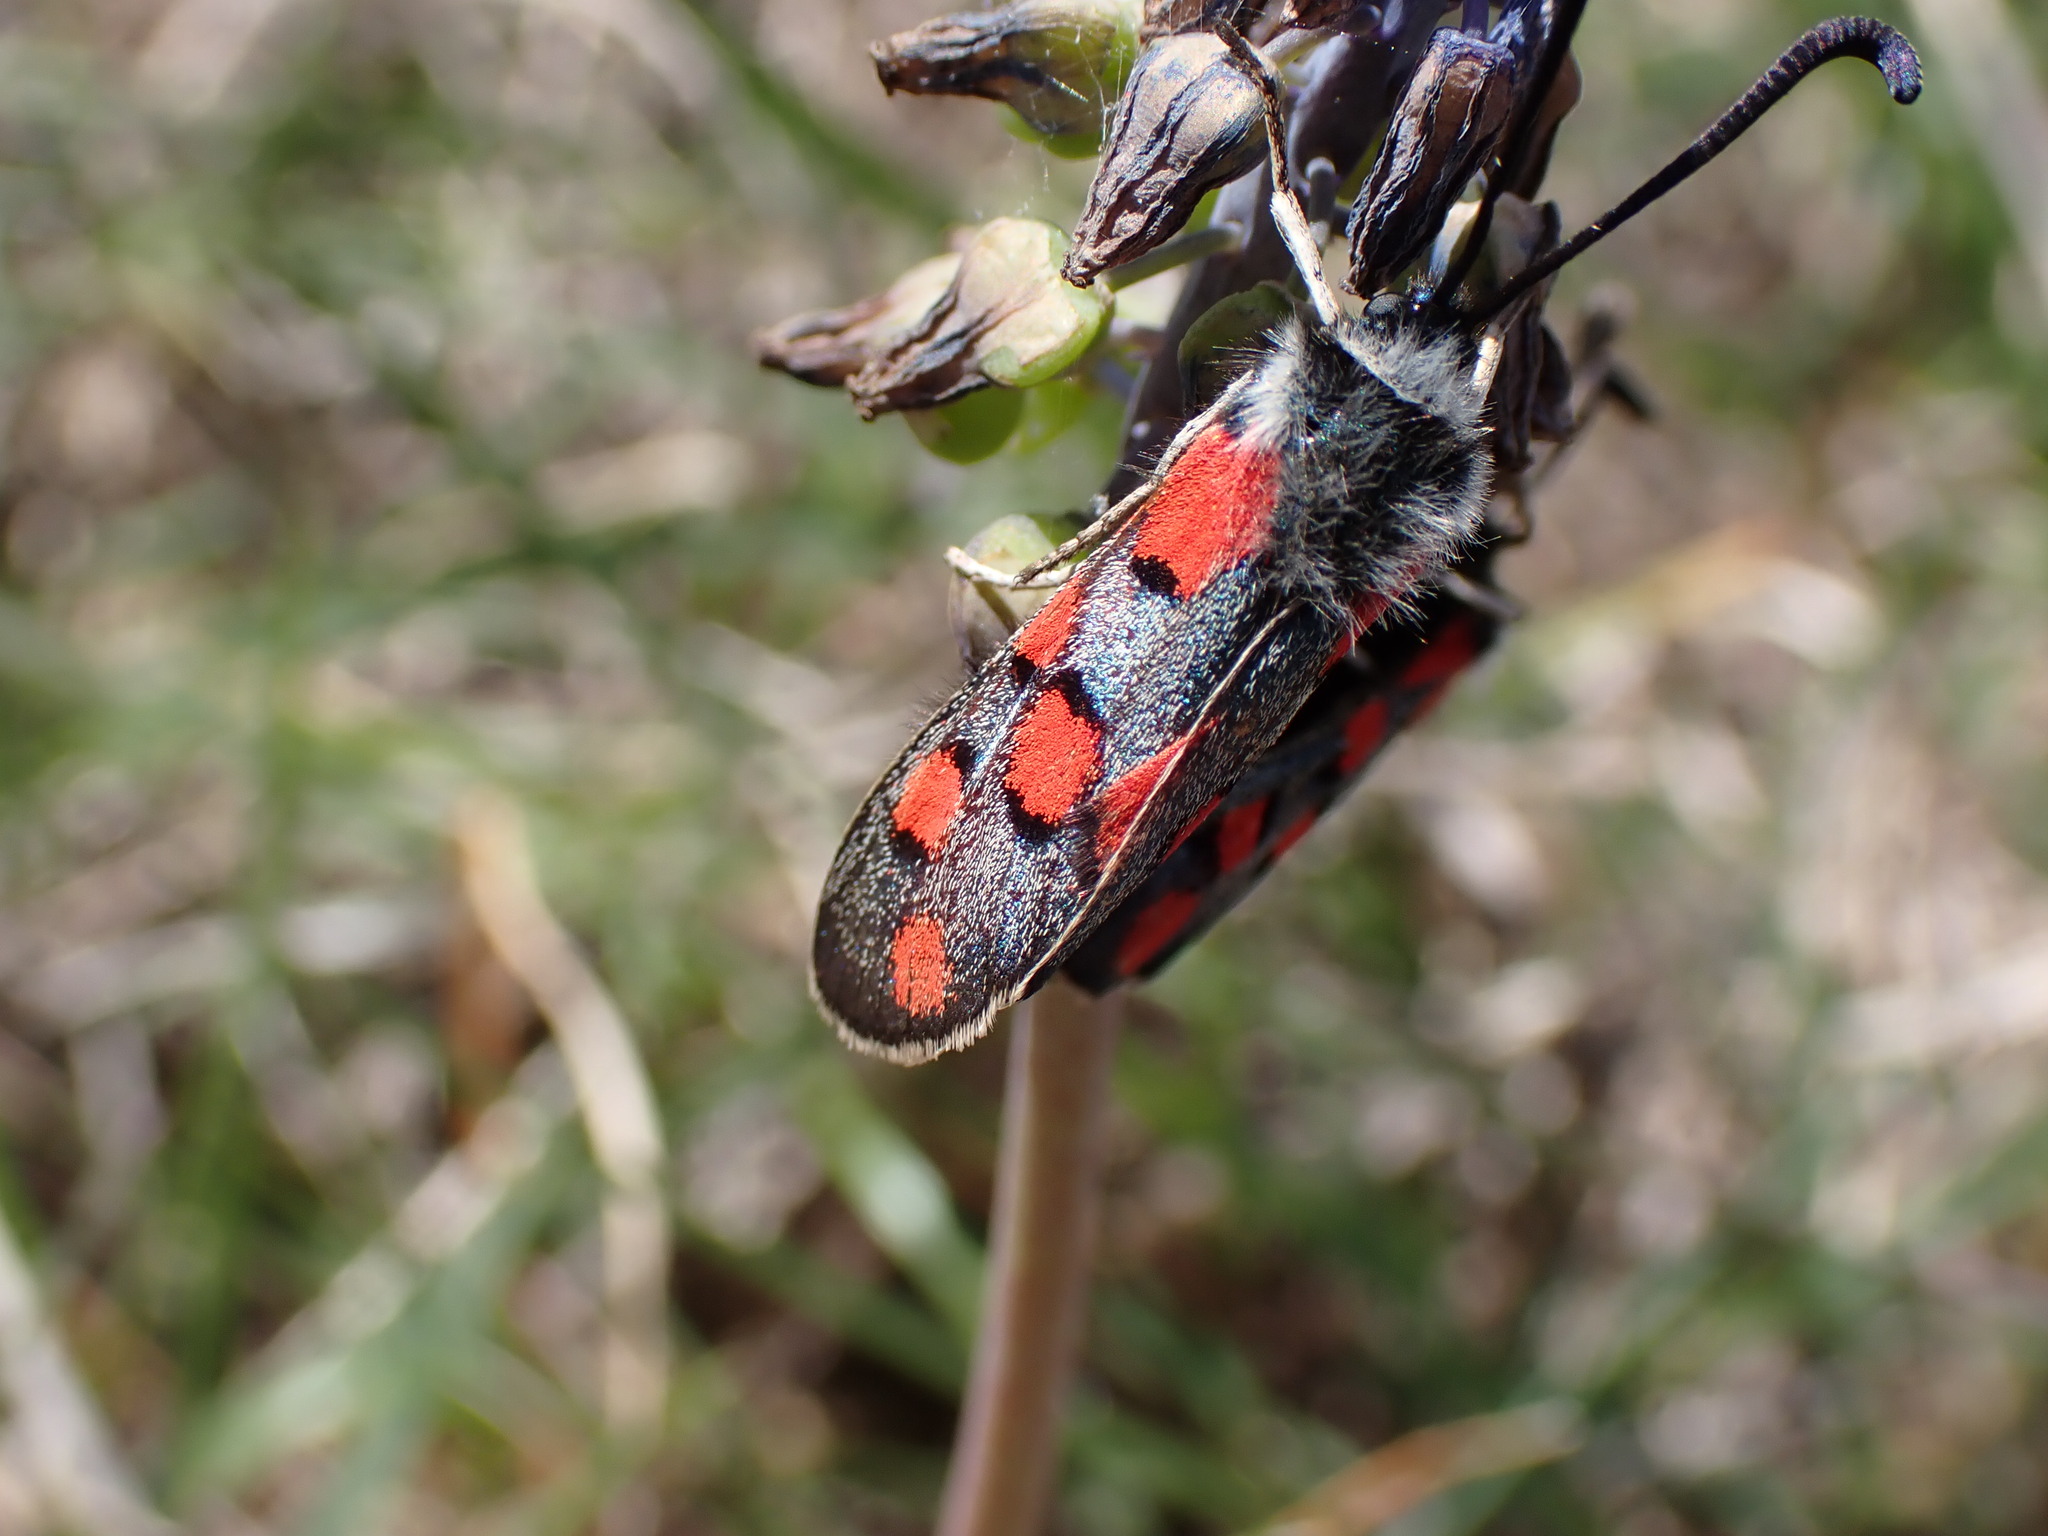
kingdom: Animalia
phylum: Arthropoda
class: Insecta
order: Lepidoptera
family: Zygaenidae
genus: Zygaena
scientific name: Zygaena rhadamanthus
